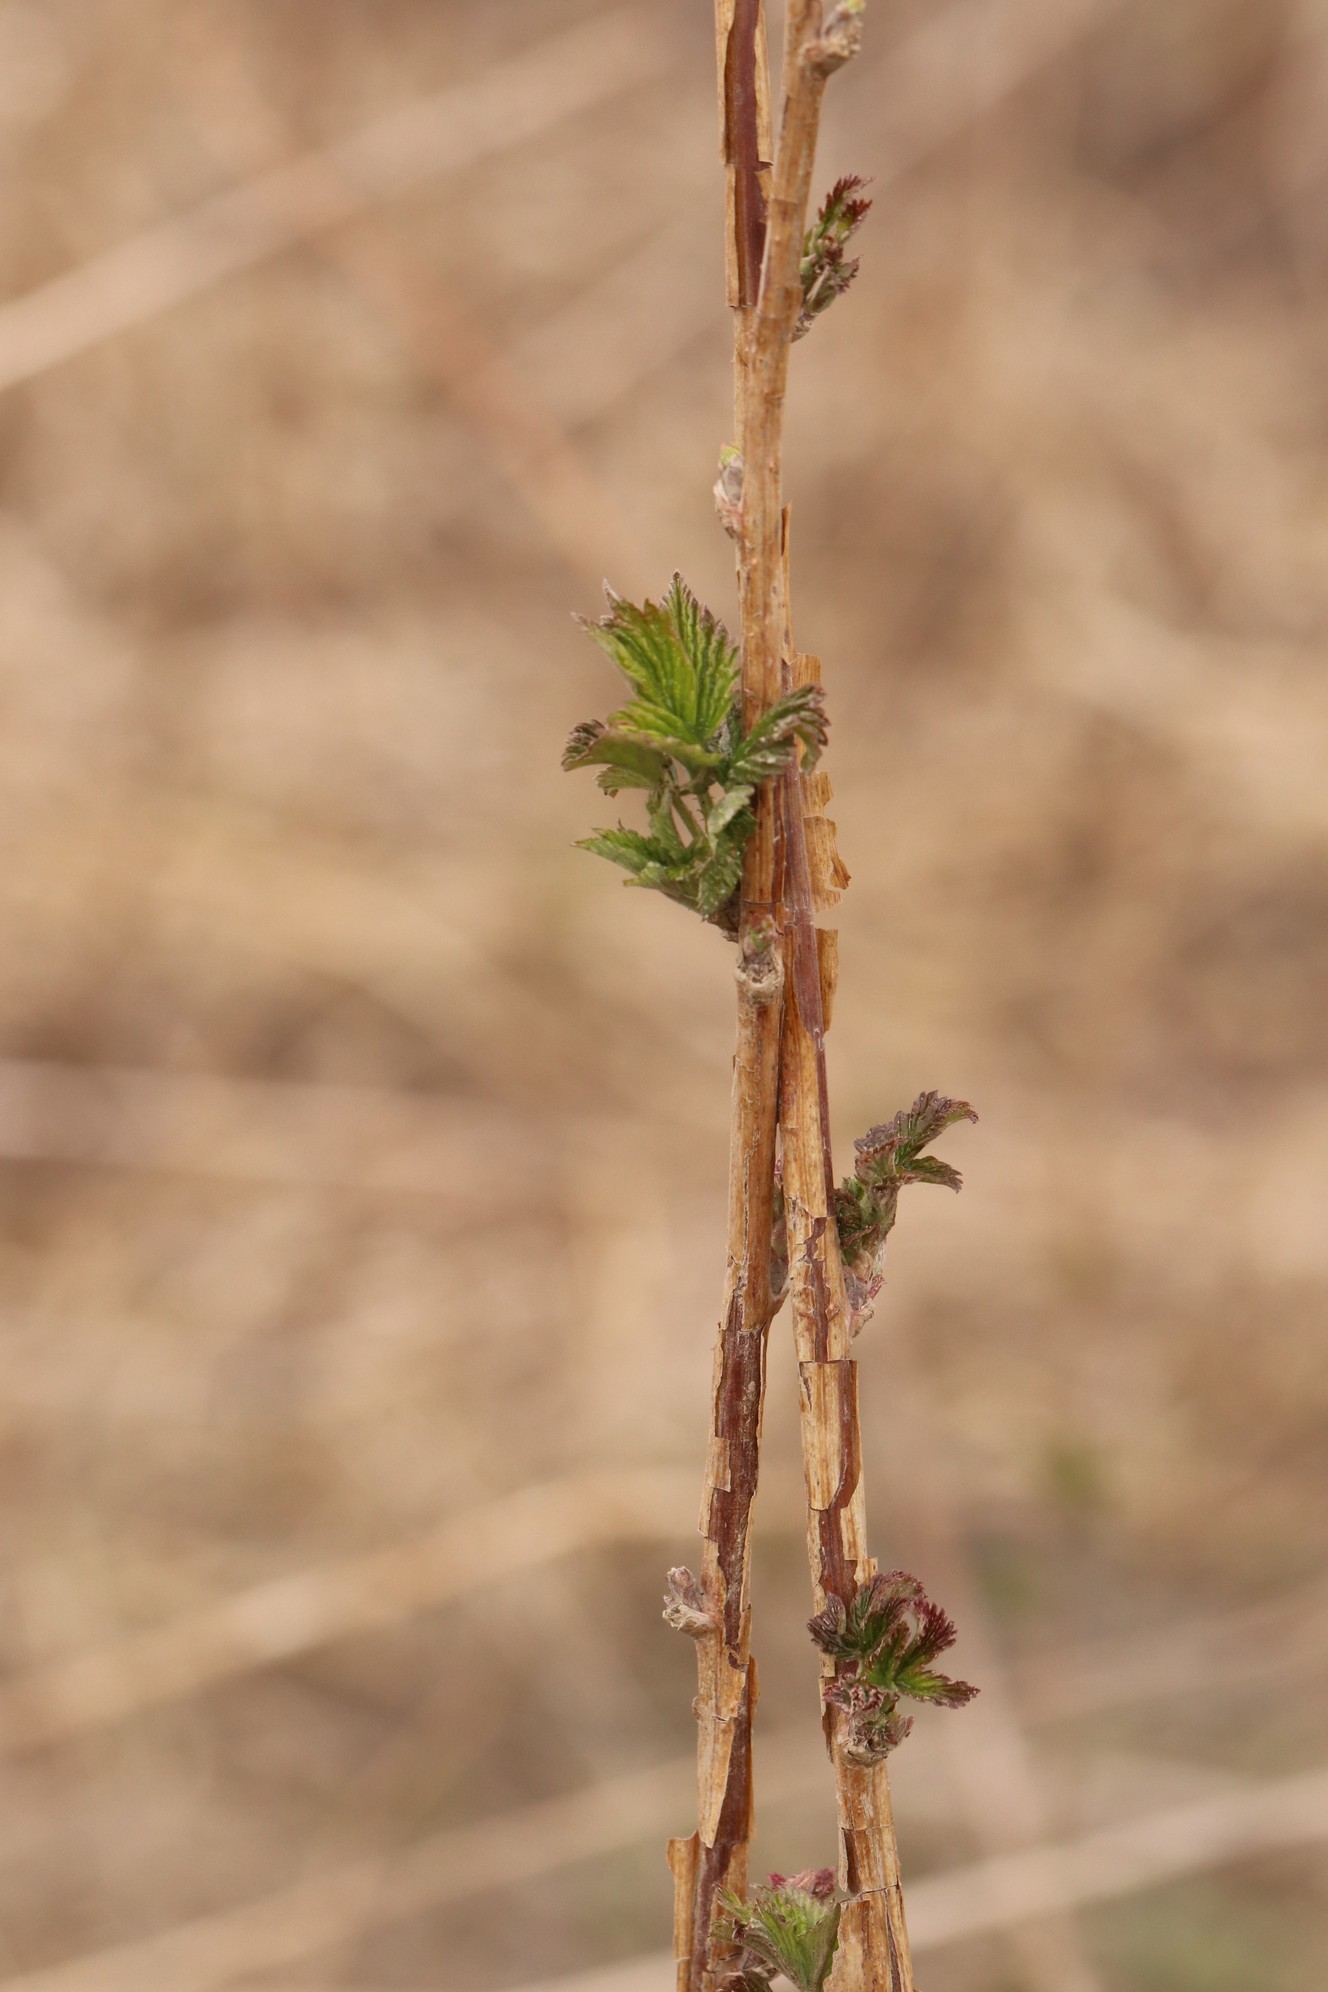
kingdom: Plantae
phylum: Tracheophyta
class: Magnoliopsida
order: Rosales
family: Rosaceae
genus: Rubus
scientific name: Rubus idaeus
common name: Raspberry
